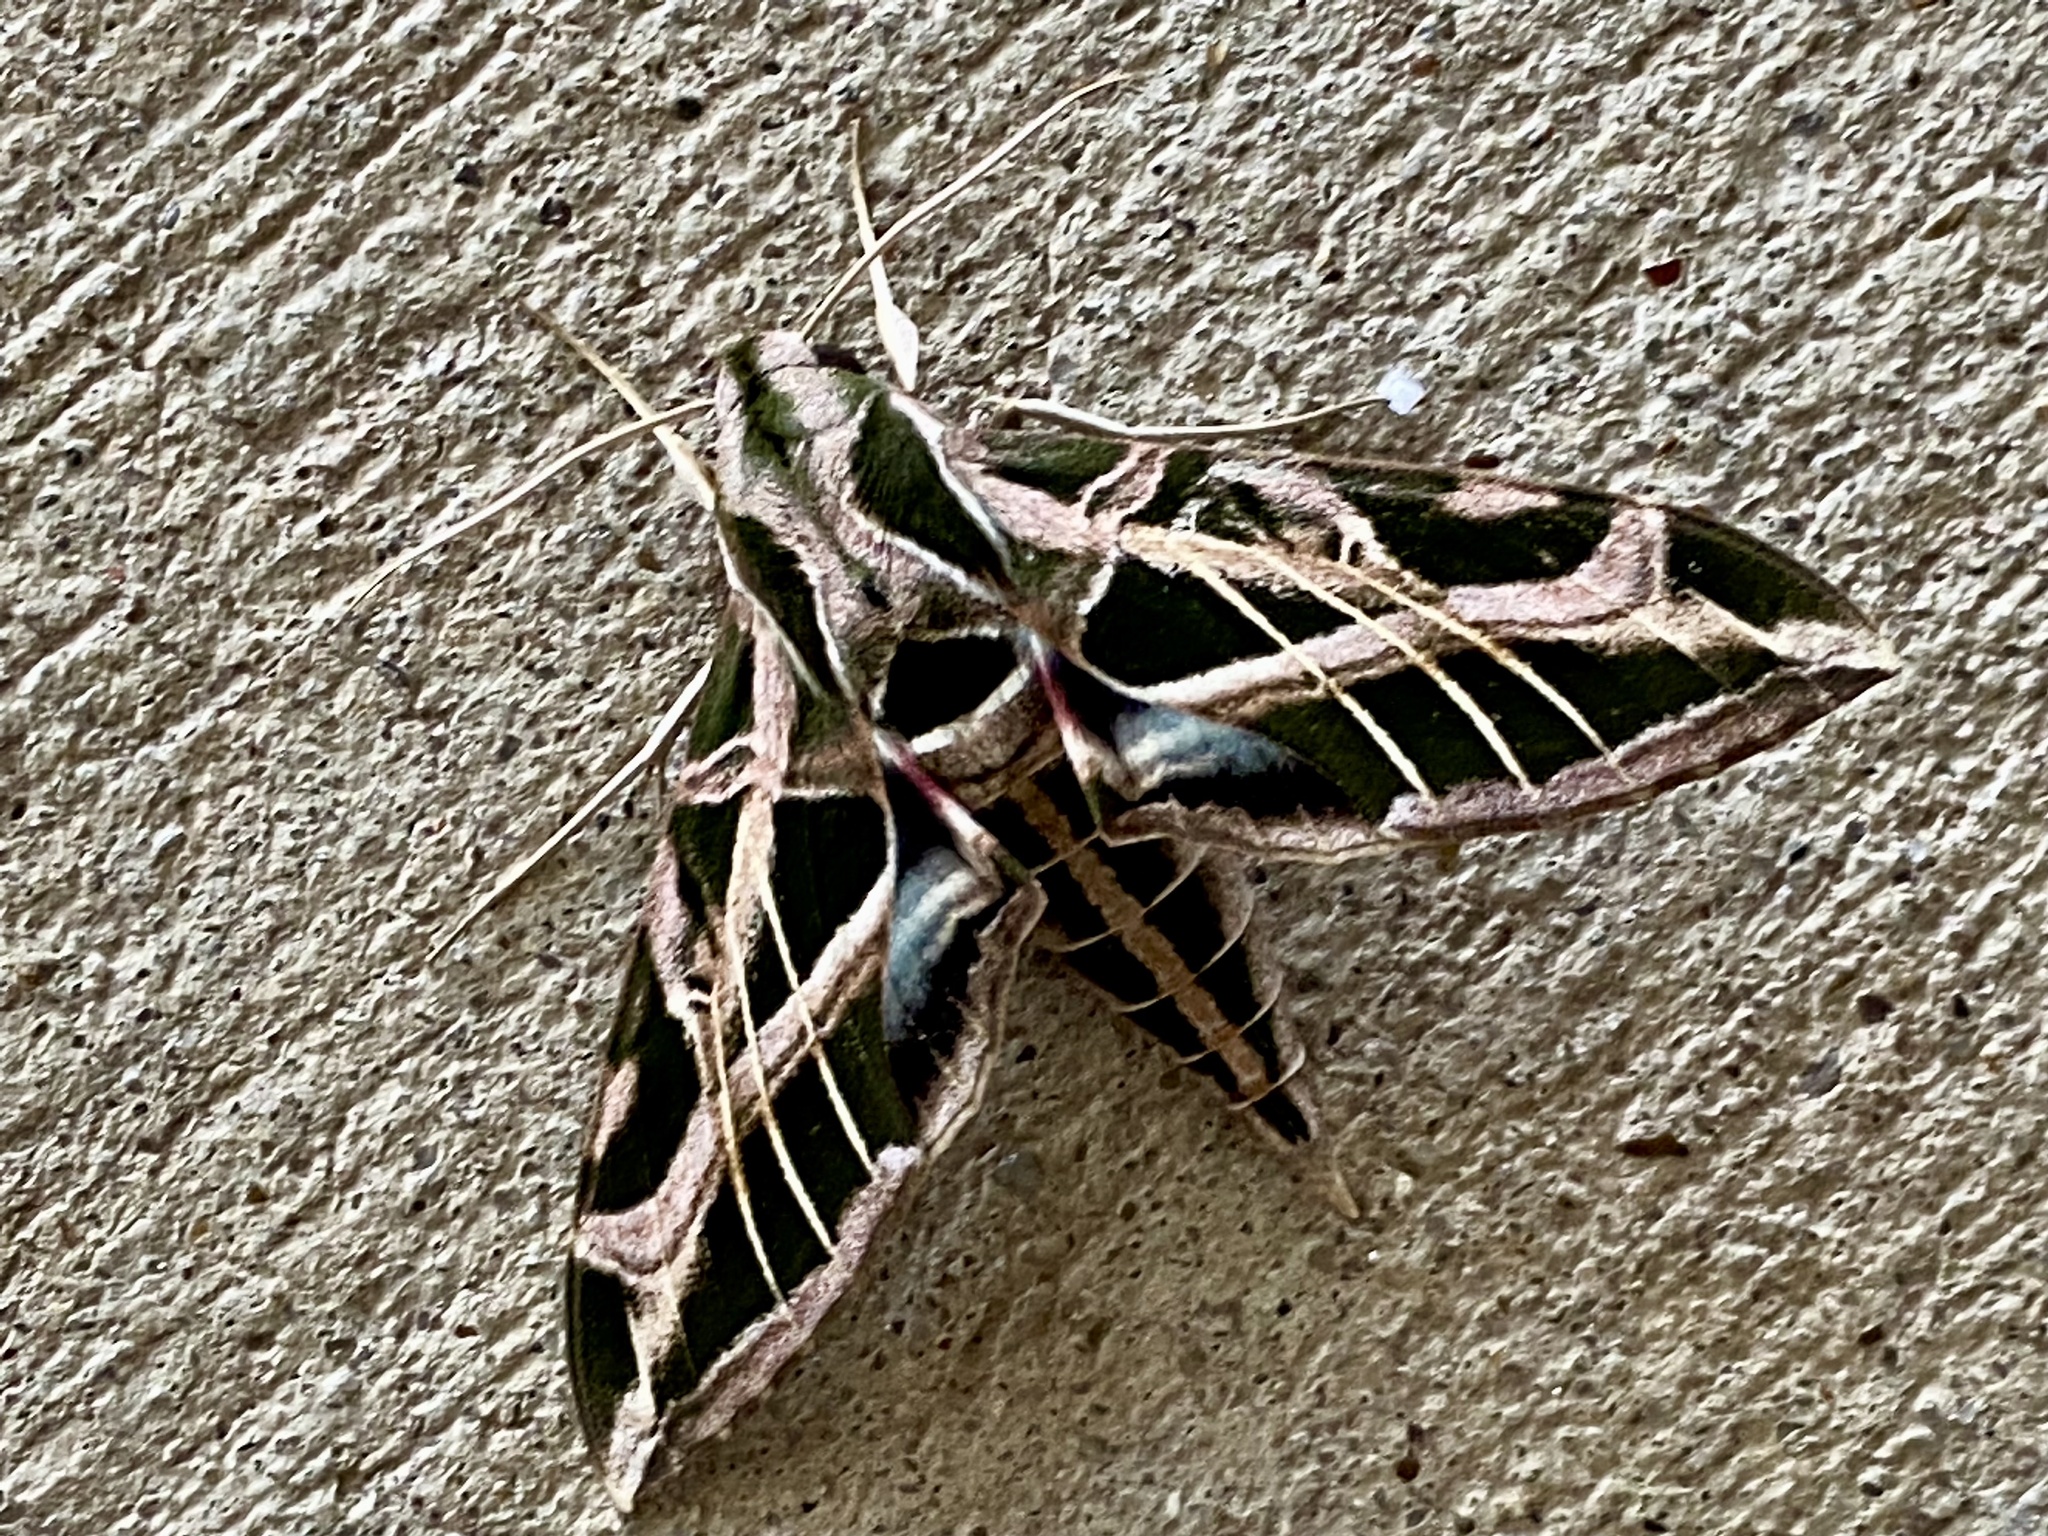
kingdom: Animalia
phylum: Arthropoda
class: Insecta
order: Lepidoptera
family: Sphingidae
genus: Eumorpha
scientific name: Eumorpha vitis
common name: Vine sphinx
